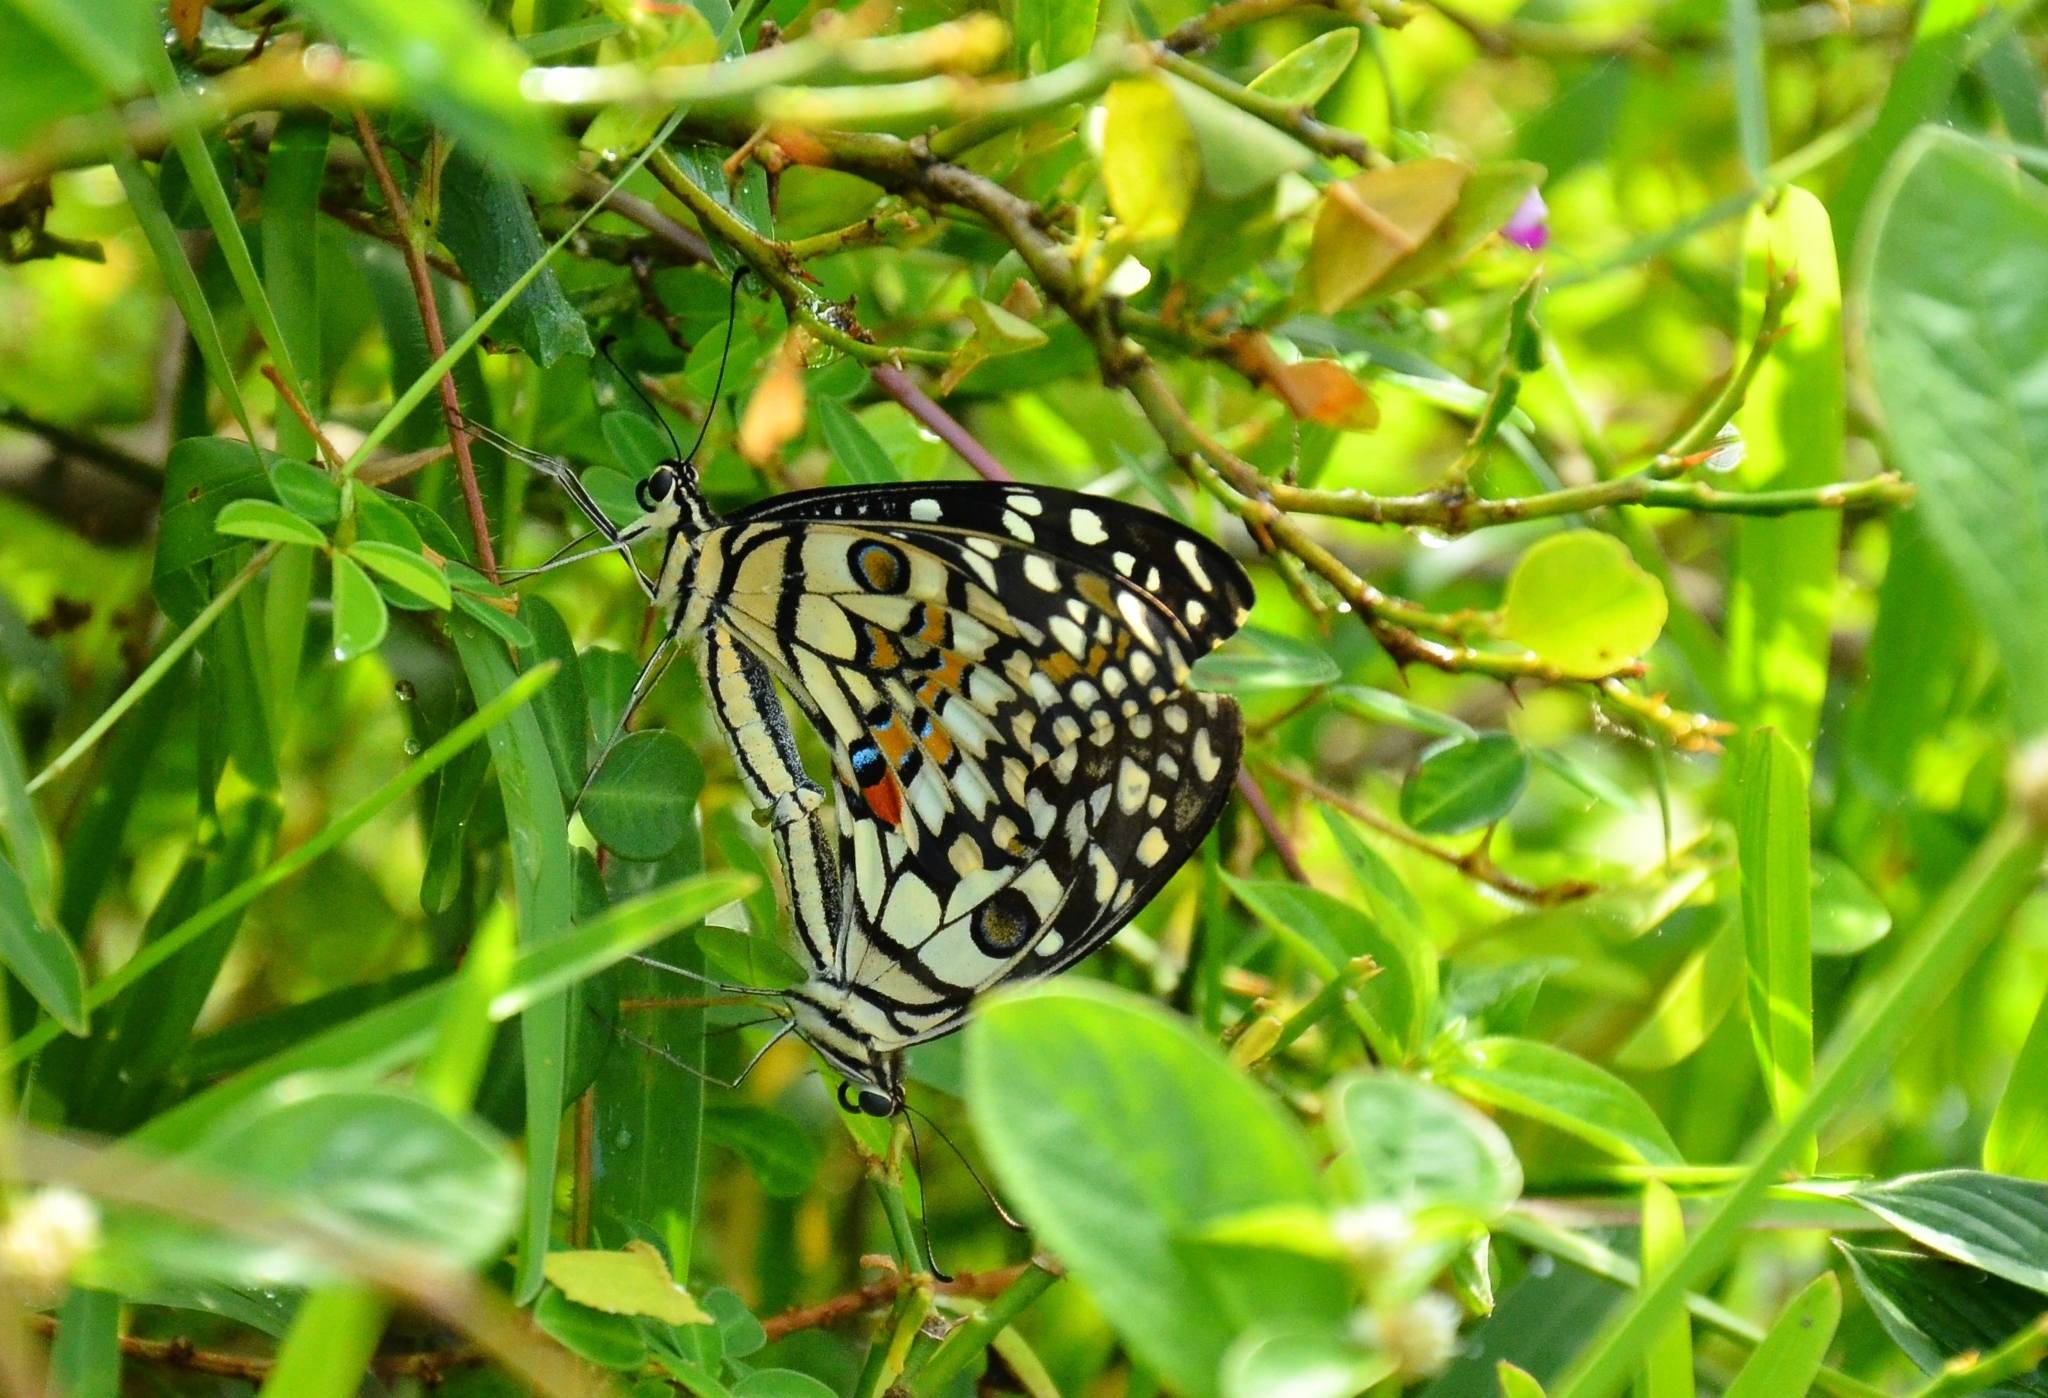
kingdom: Animalia
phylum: Arthropoda
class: Insecta
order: Lepidoptera
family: Papilionidae
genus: Papilio
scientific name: Papilio demoleus
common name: Lime butterfly
